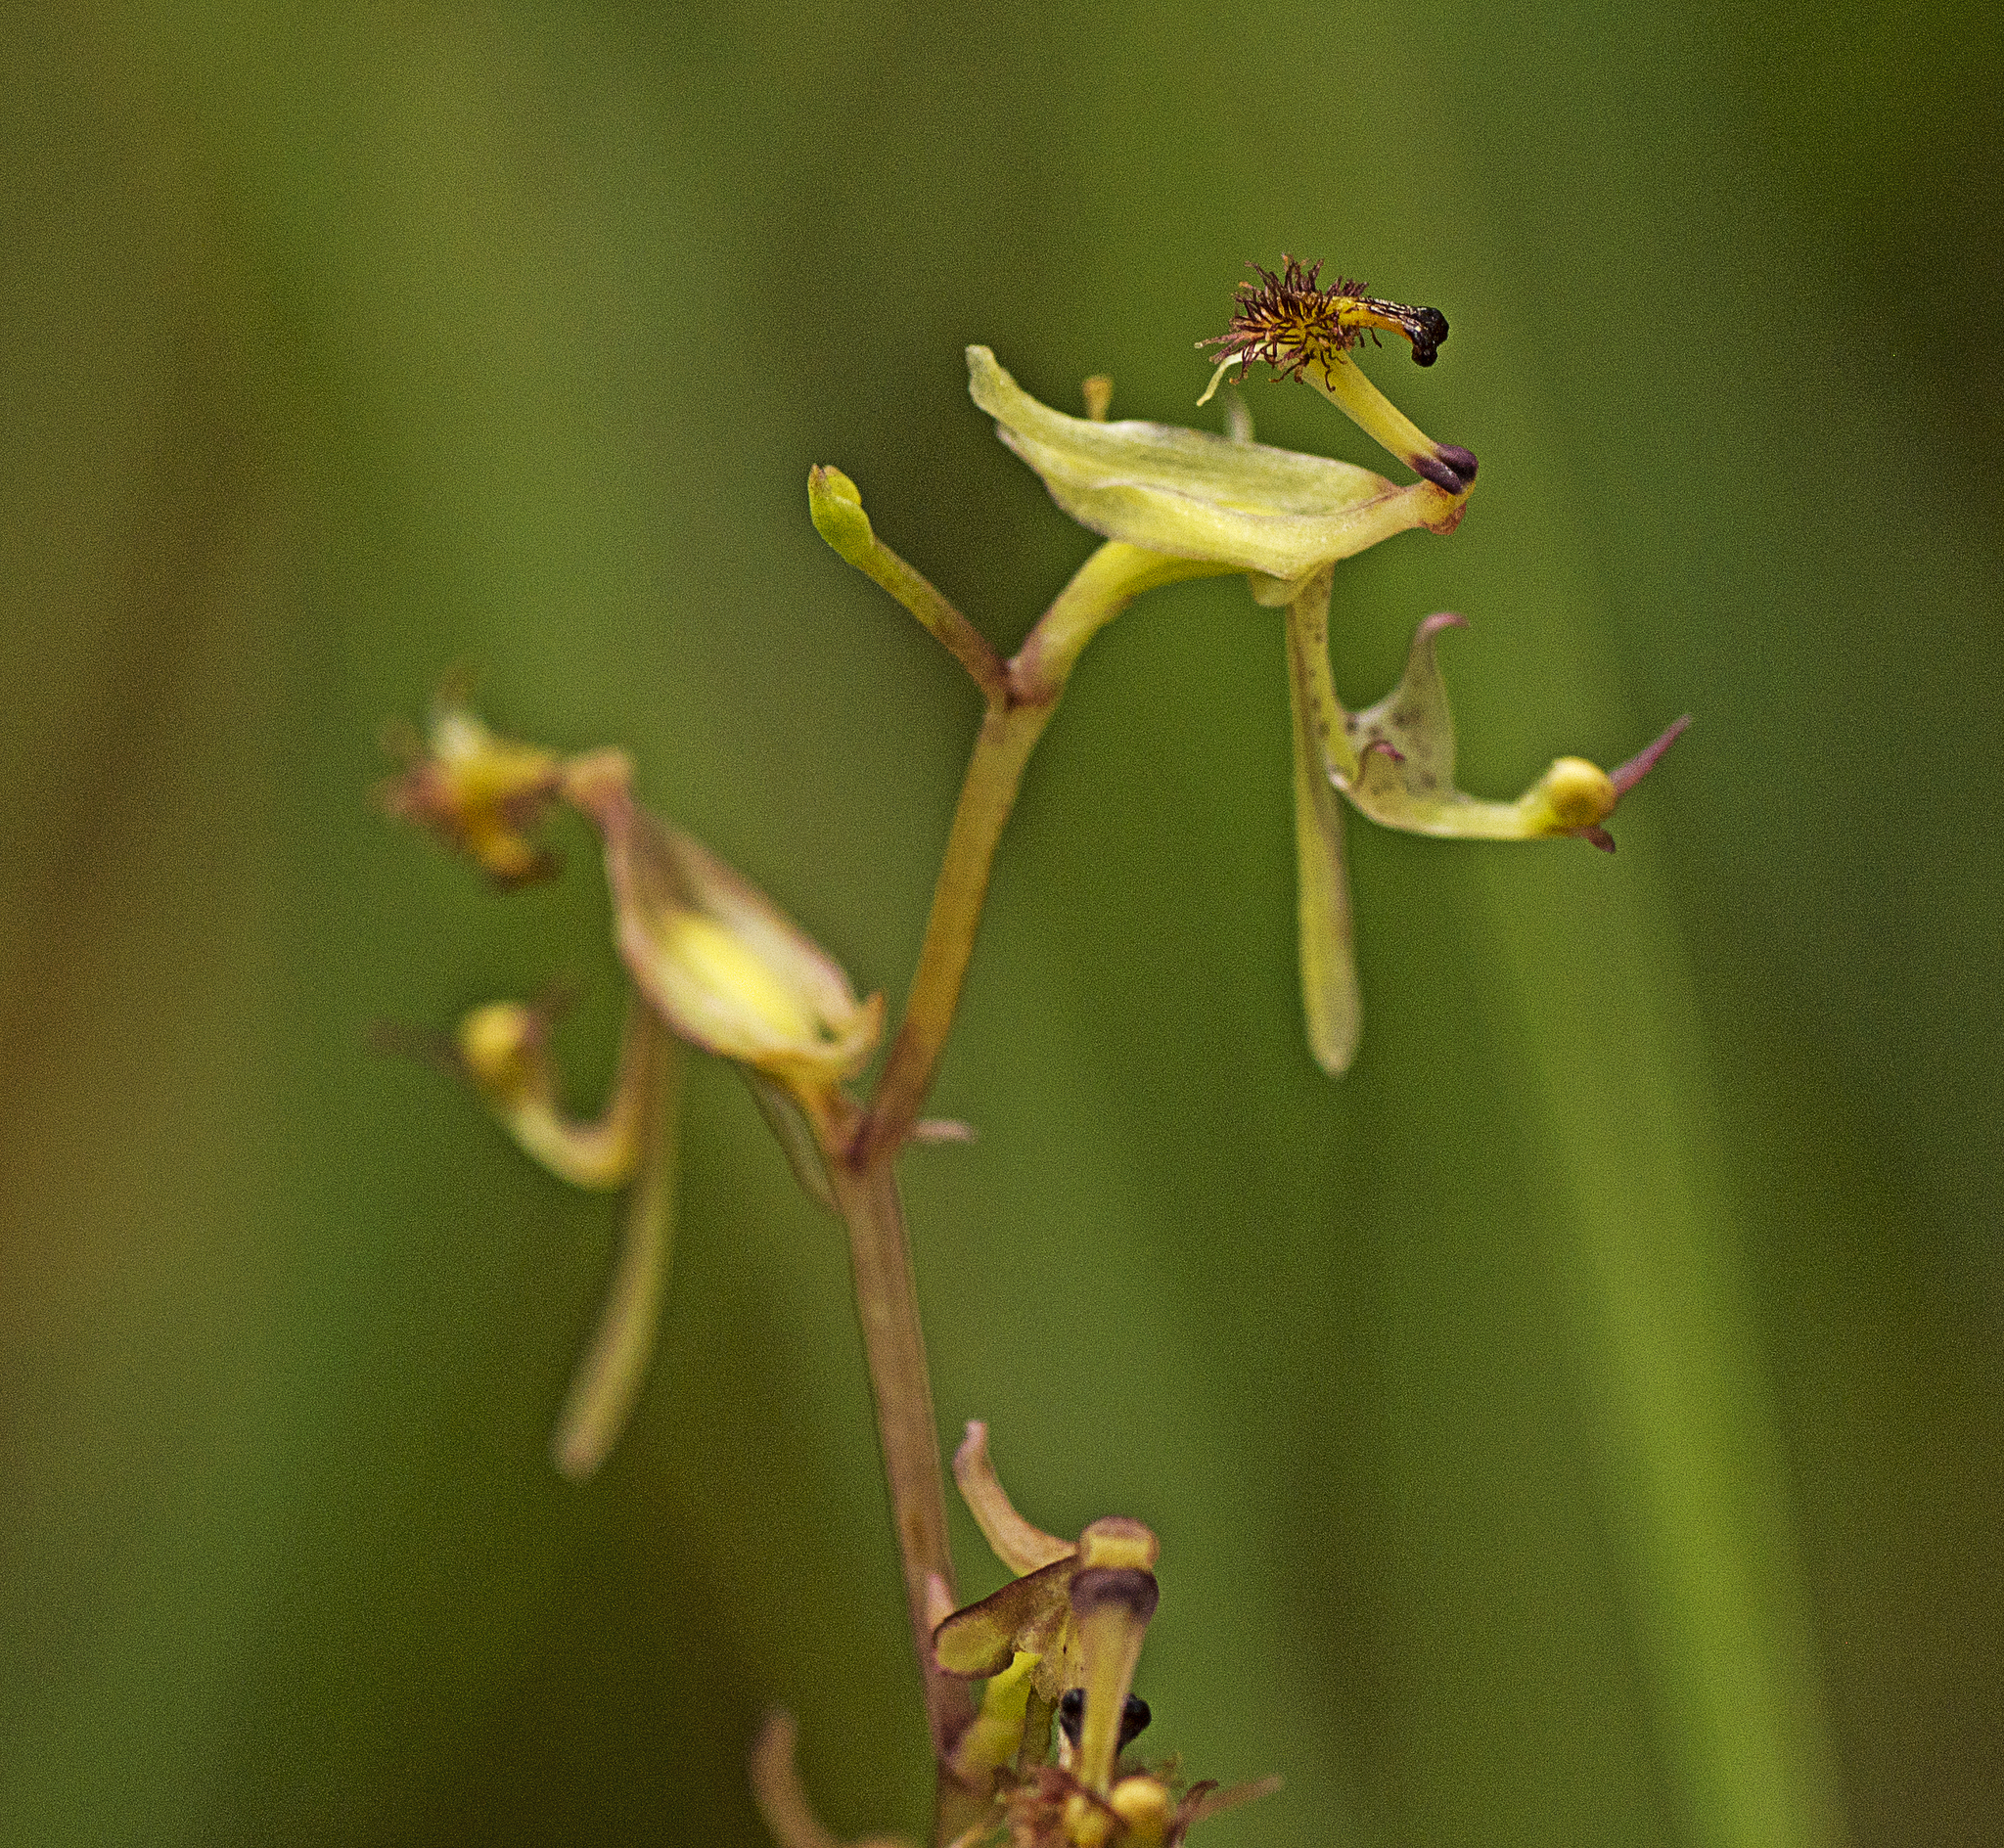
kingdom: Plantae
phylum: Tracheophyta
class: Liliopsida
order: Asparagales
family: Orchidaceae
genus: Arthrochilus
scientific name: Arthrochilus irritabilis
